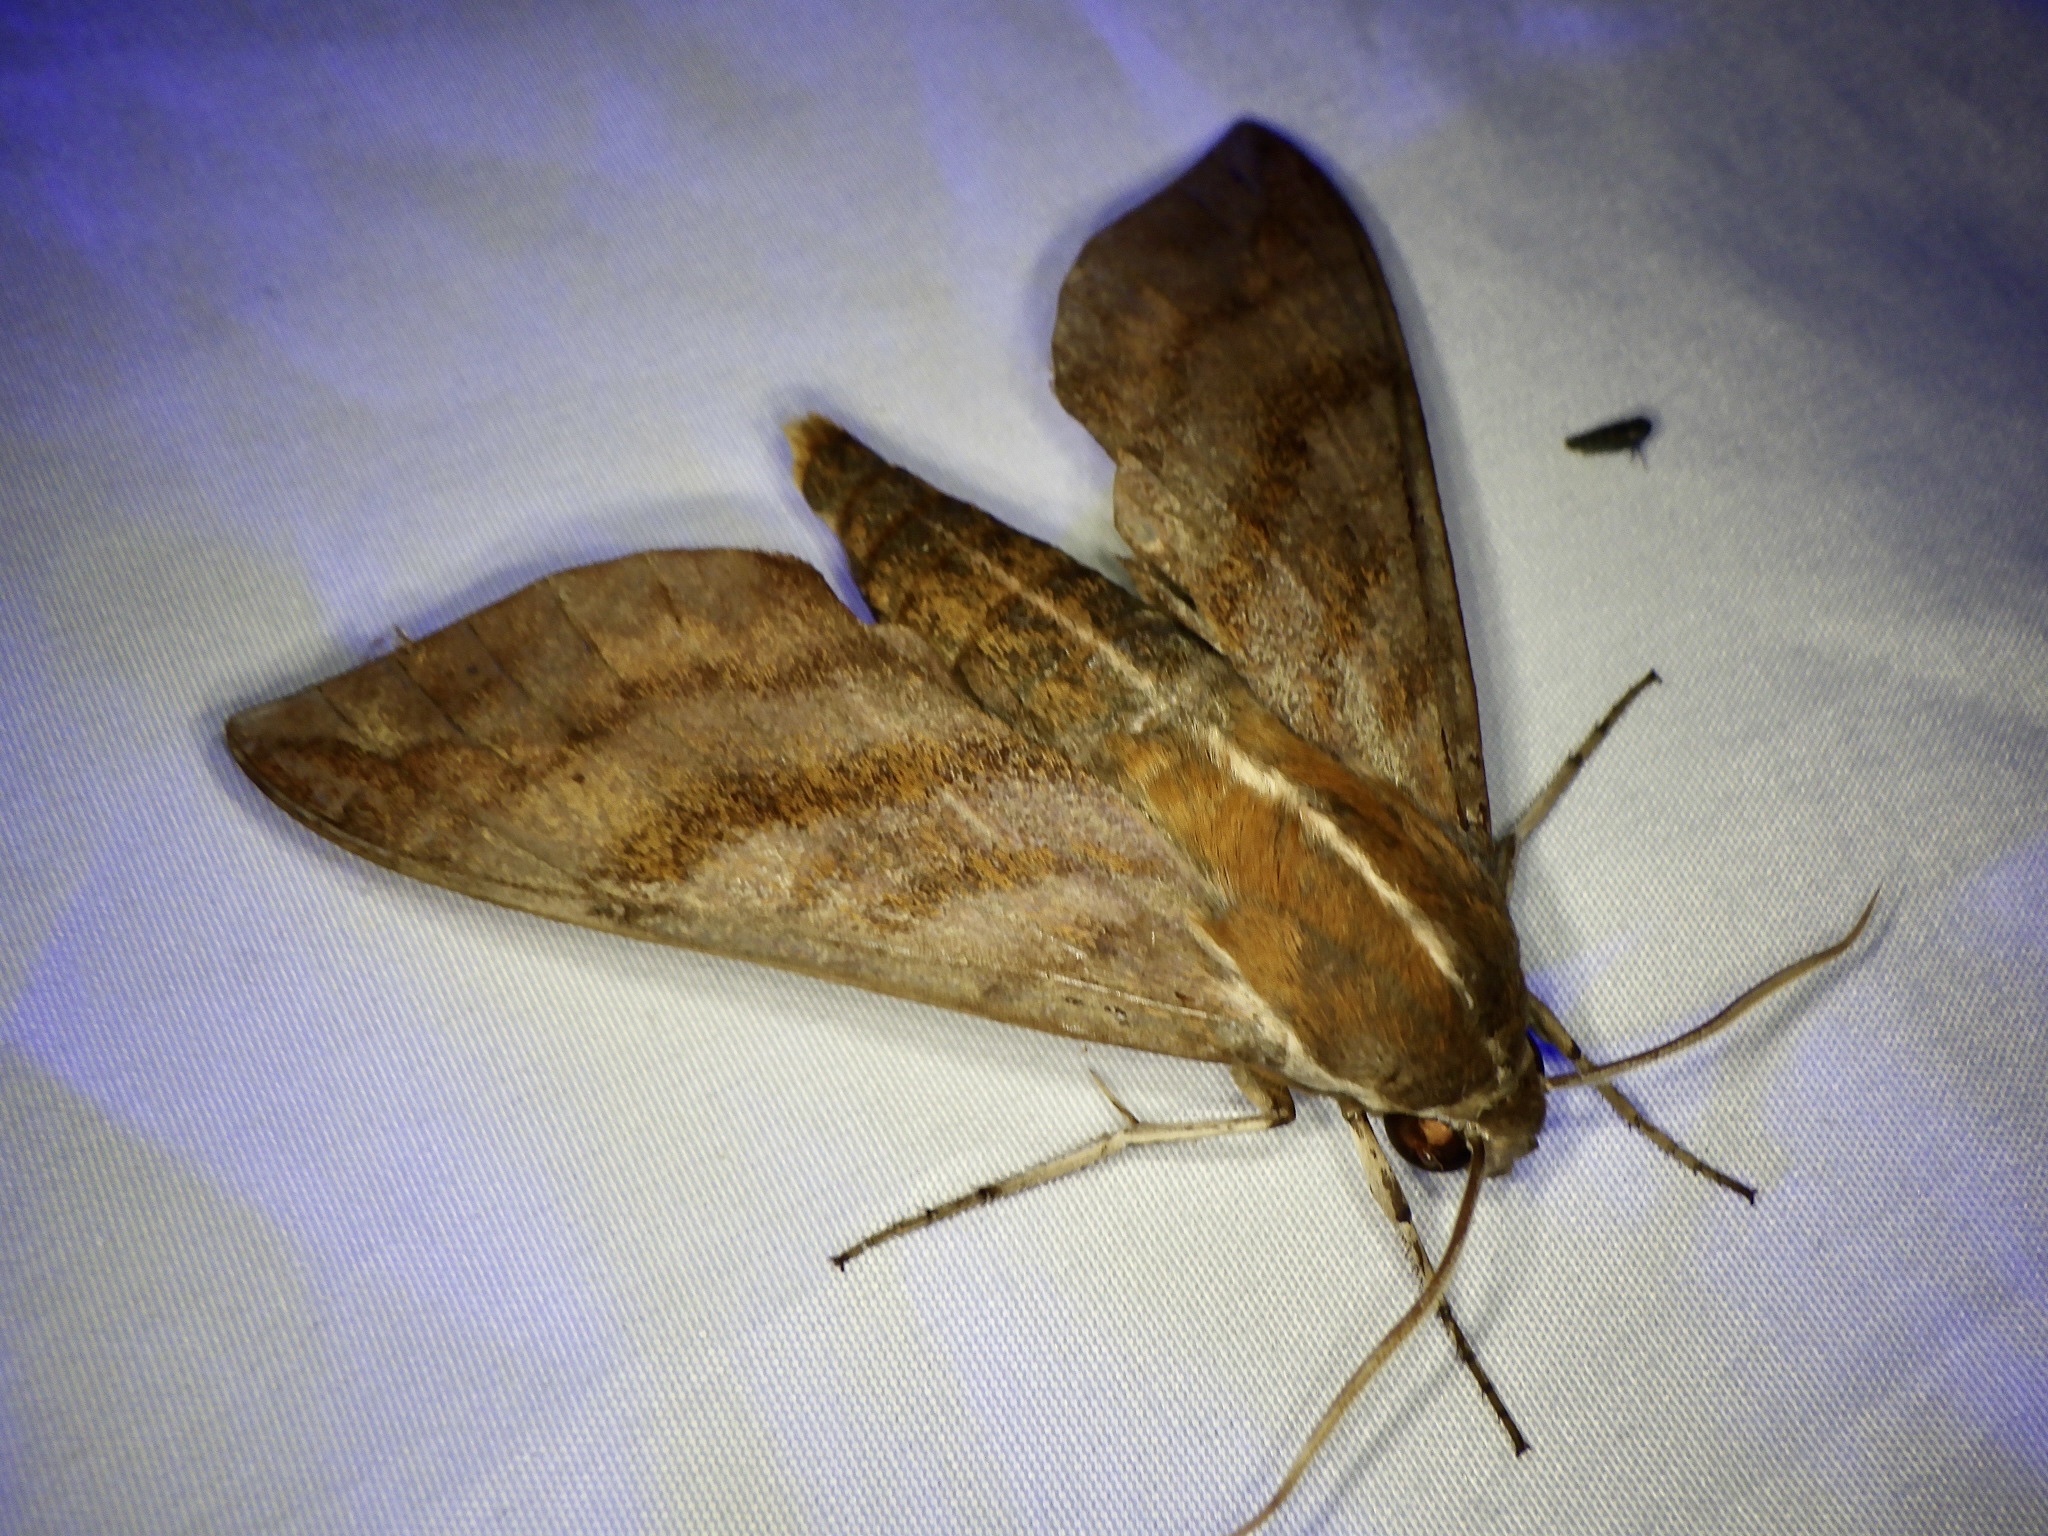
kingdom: Animalia
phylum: Arthropoda
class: Insecta
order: Lepidoptera
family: Sphingidae
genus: Ampelophaga
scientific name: Ampelophaga rubiginosa
